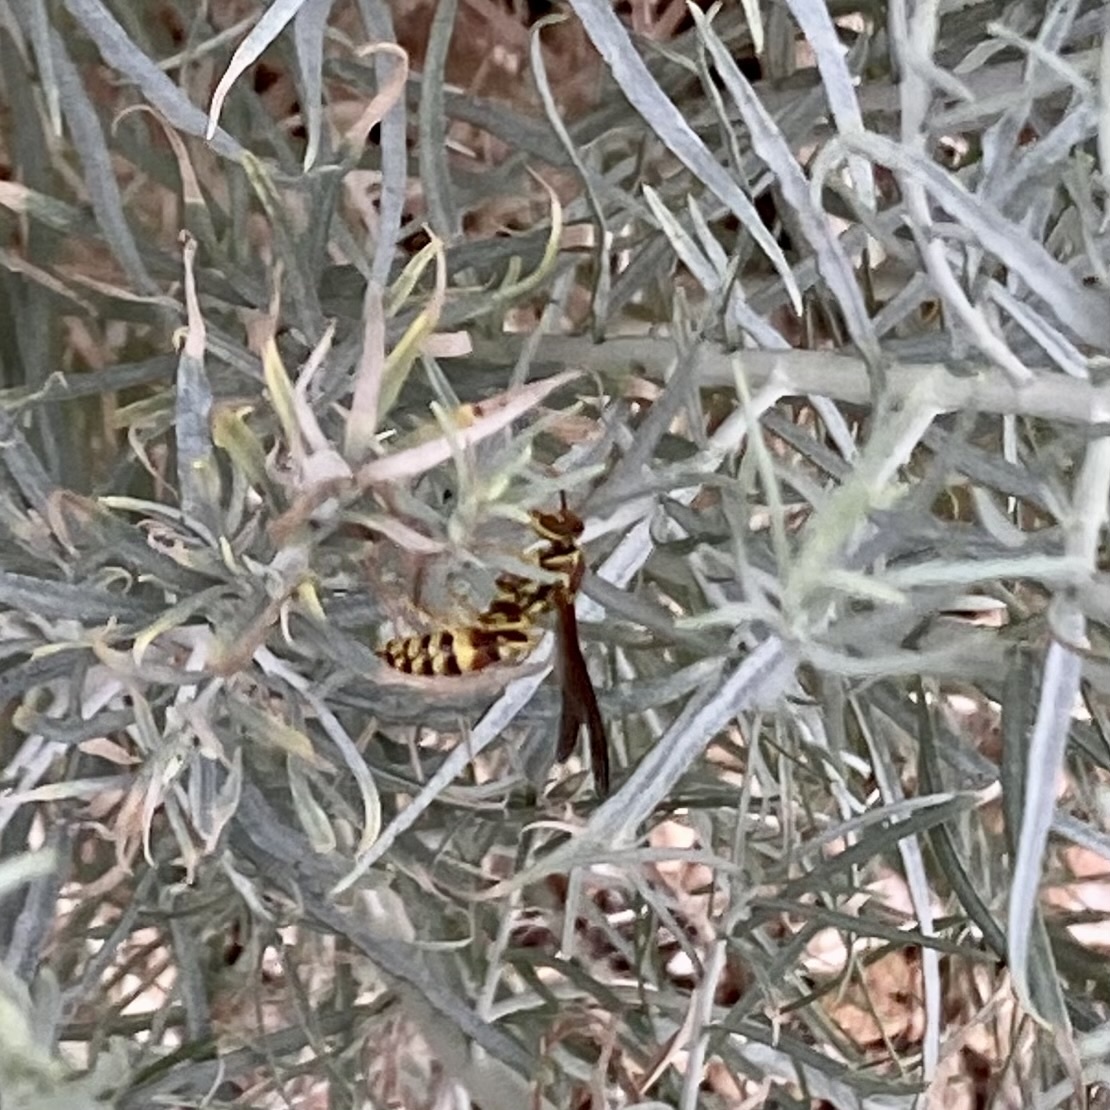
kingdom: Animalia
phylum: Arthropoda
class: Insecta
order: Hymenoptera
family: Eumenidae
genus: Polistes
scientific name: Polistes exclamans
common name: Paper wasp
